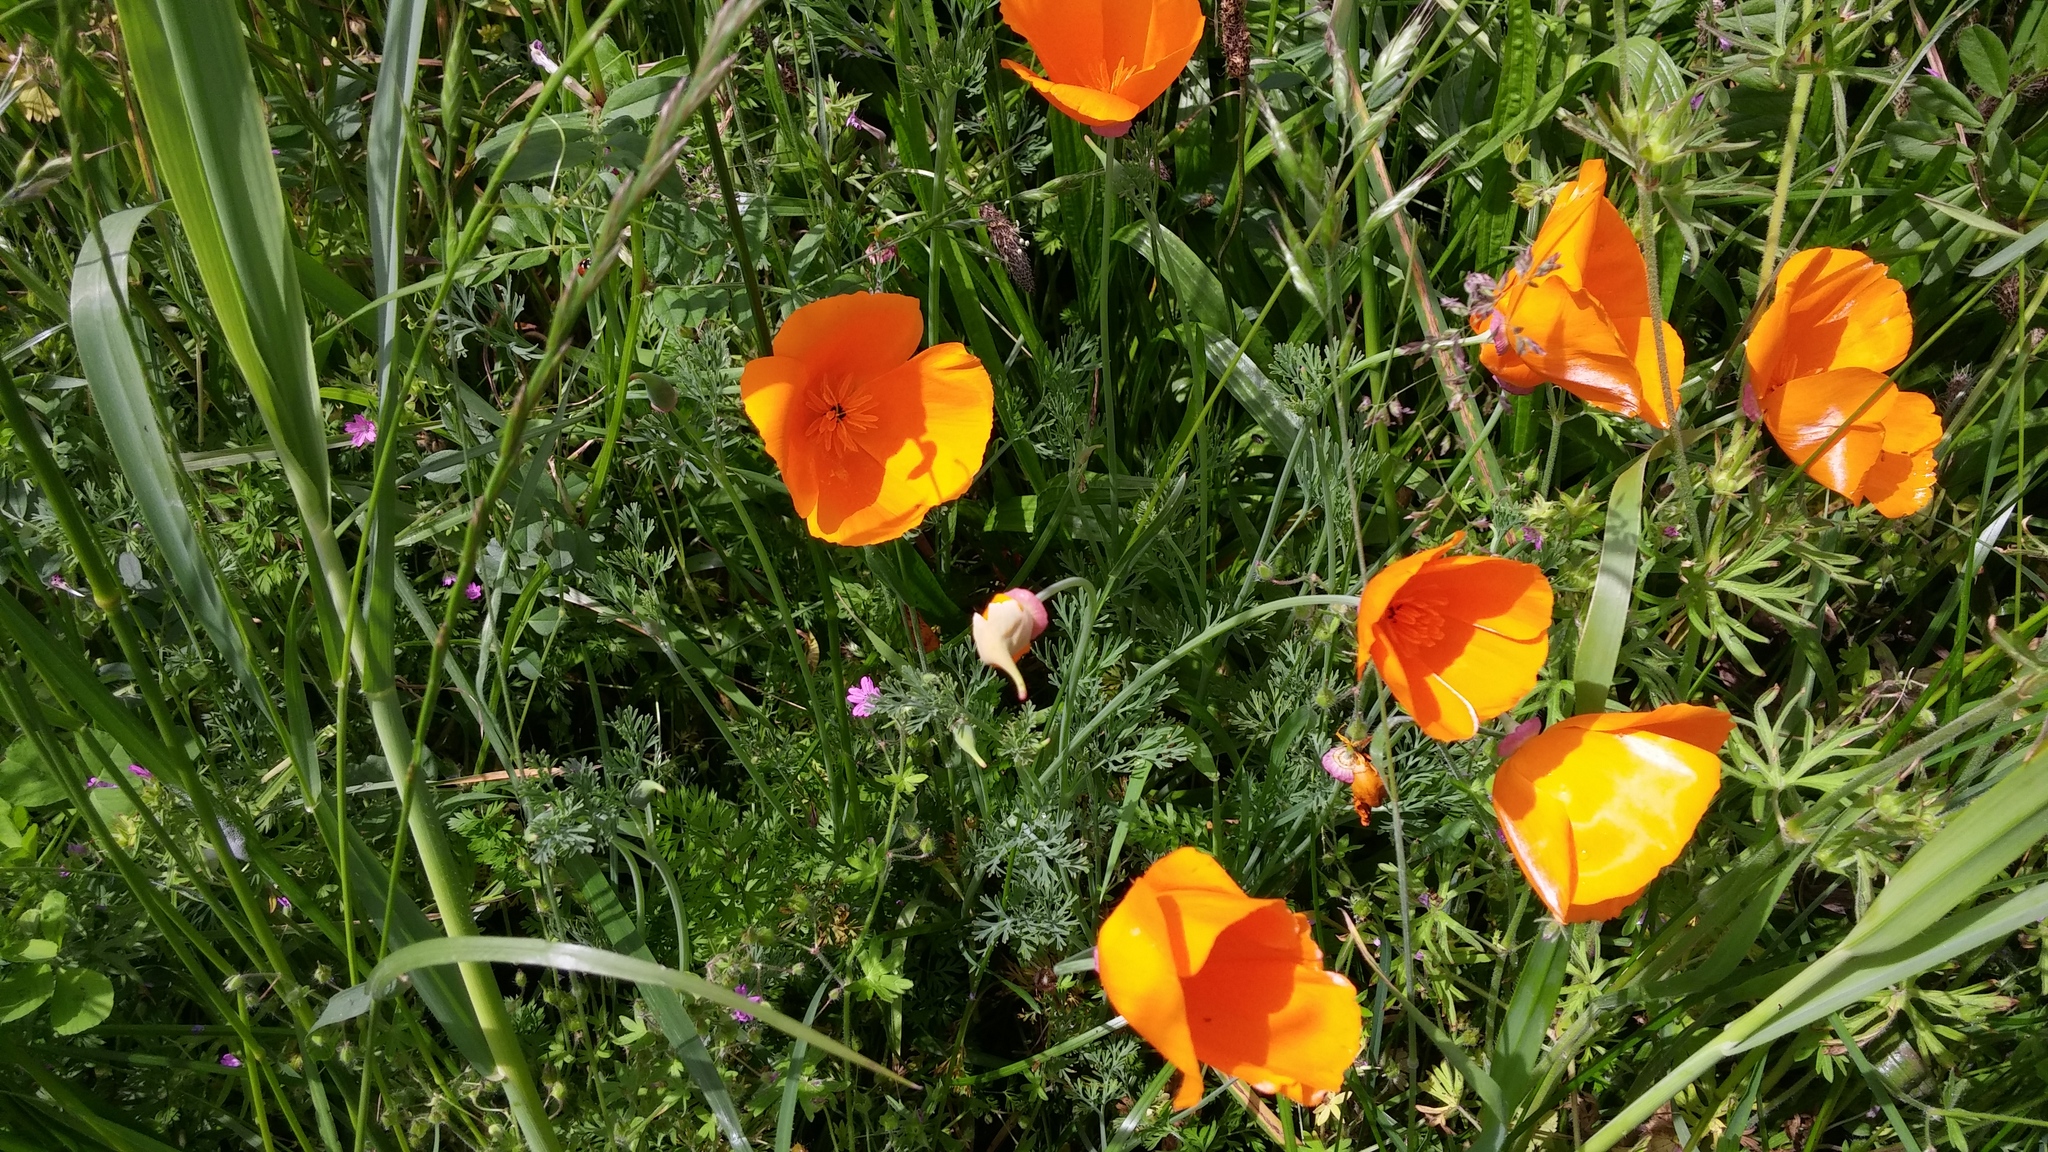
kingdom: Plantae
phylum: Tracheophyta
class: Magnoliopsida
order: Ranunculales
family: Papaveraceae
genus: Eschscholzia
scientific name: Eschscholzia californica
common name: California poppy
